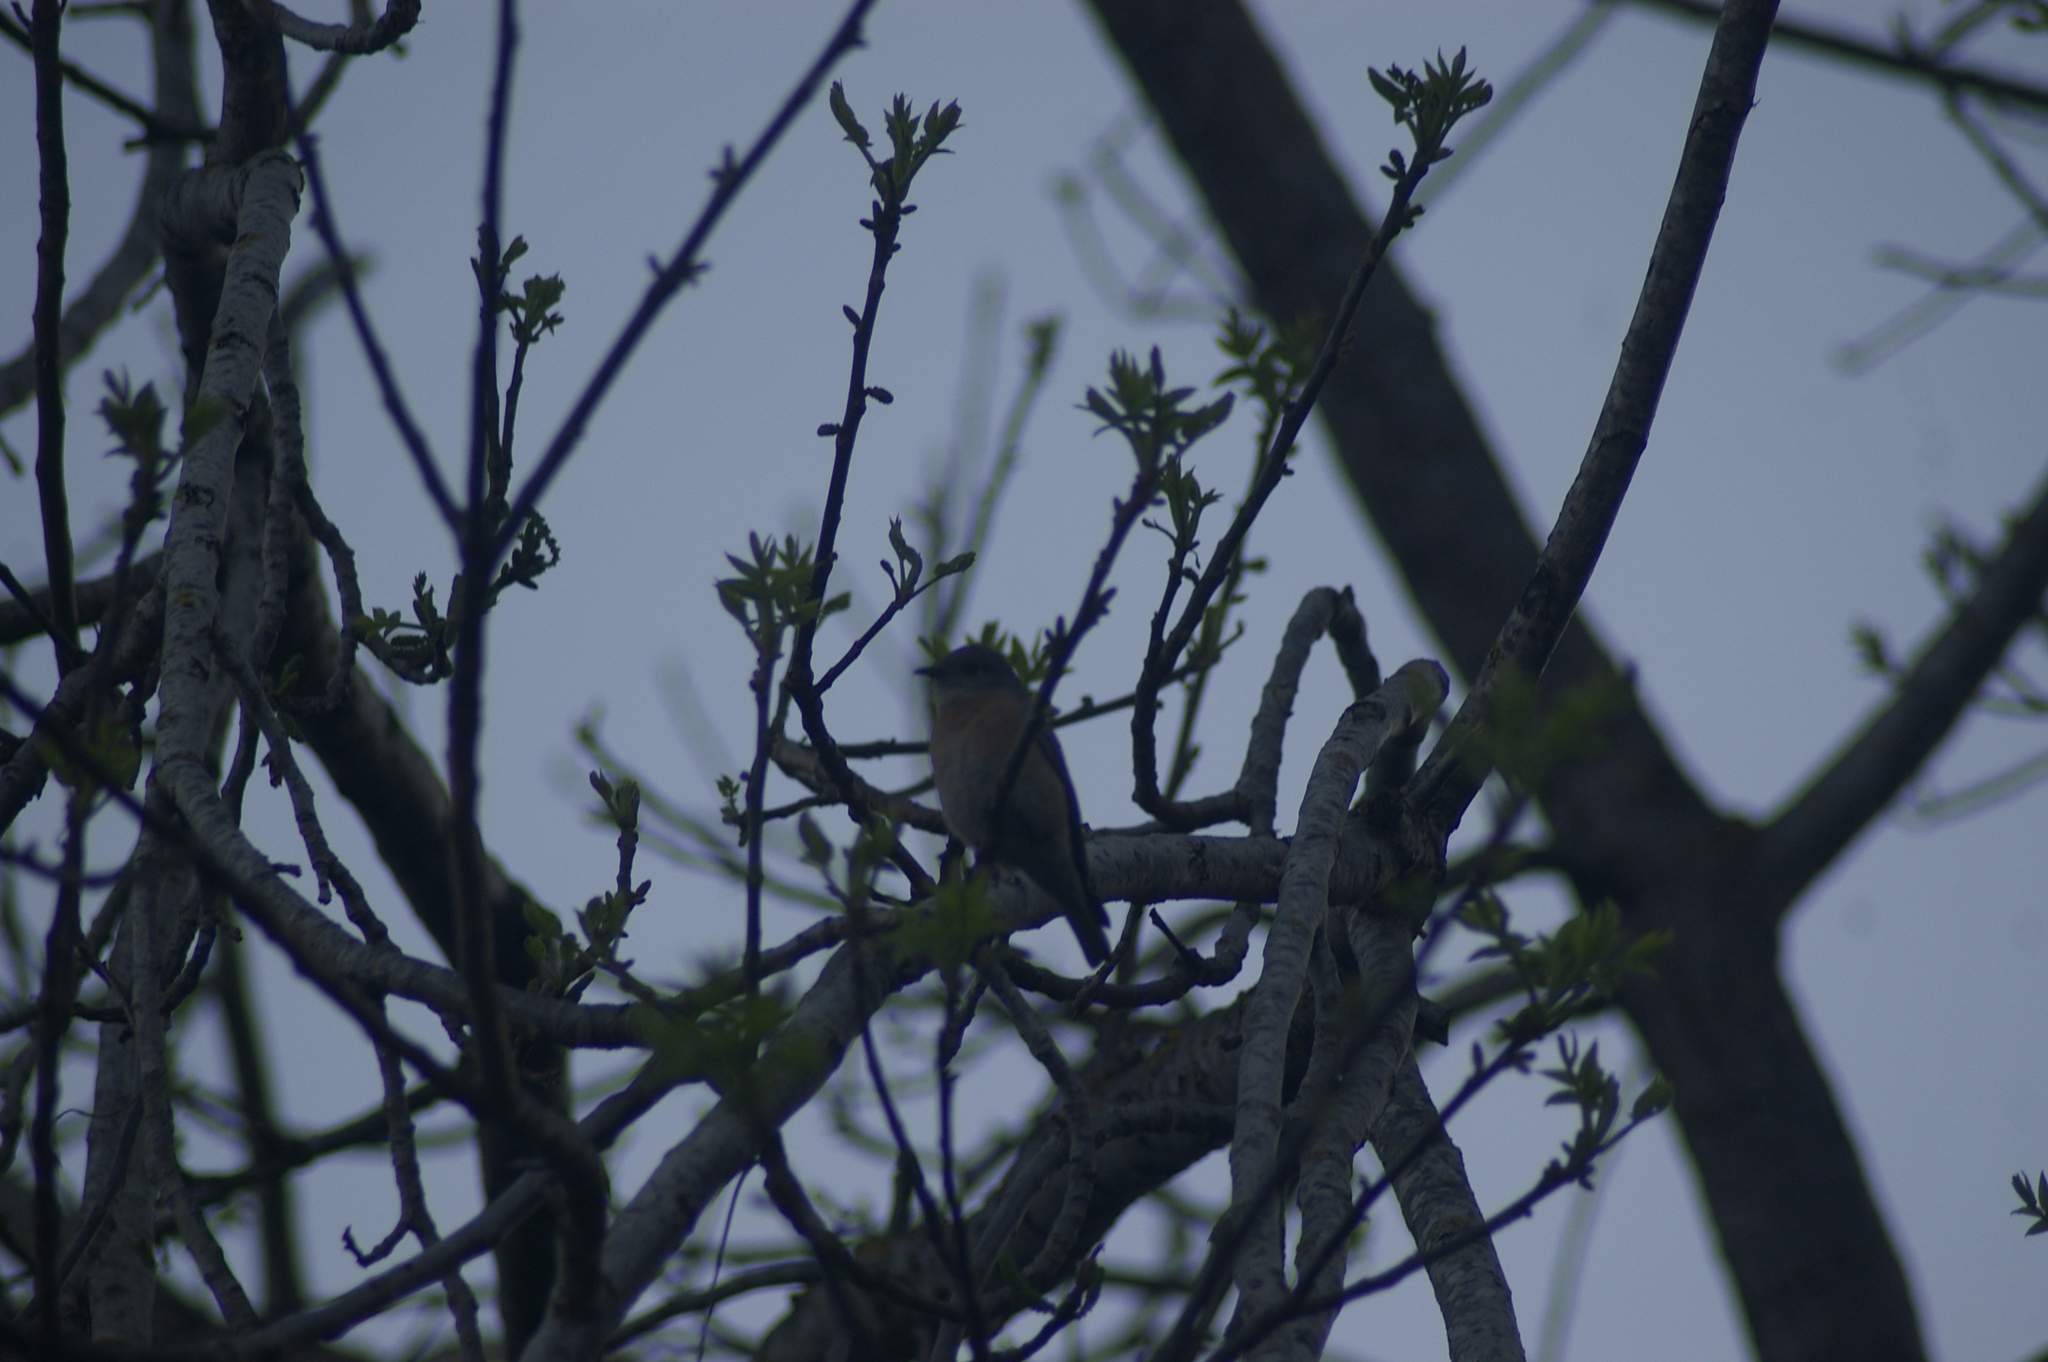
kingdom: Animalia
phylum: Chordata
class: Aves
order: Passeriformes
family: Turdidae
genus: Sialia
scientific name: Sialia mexicana
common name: Western bluebird
